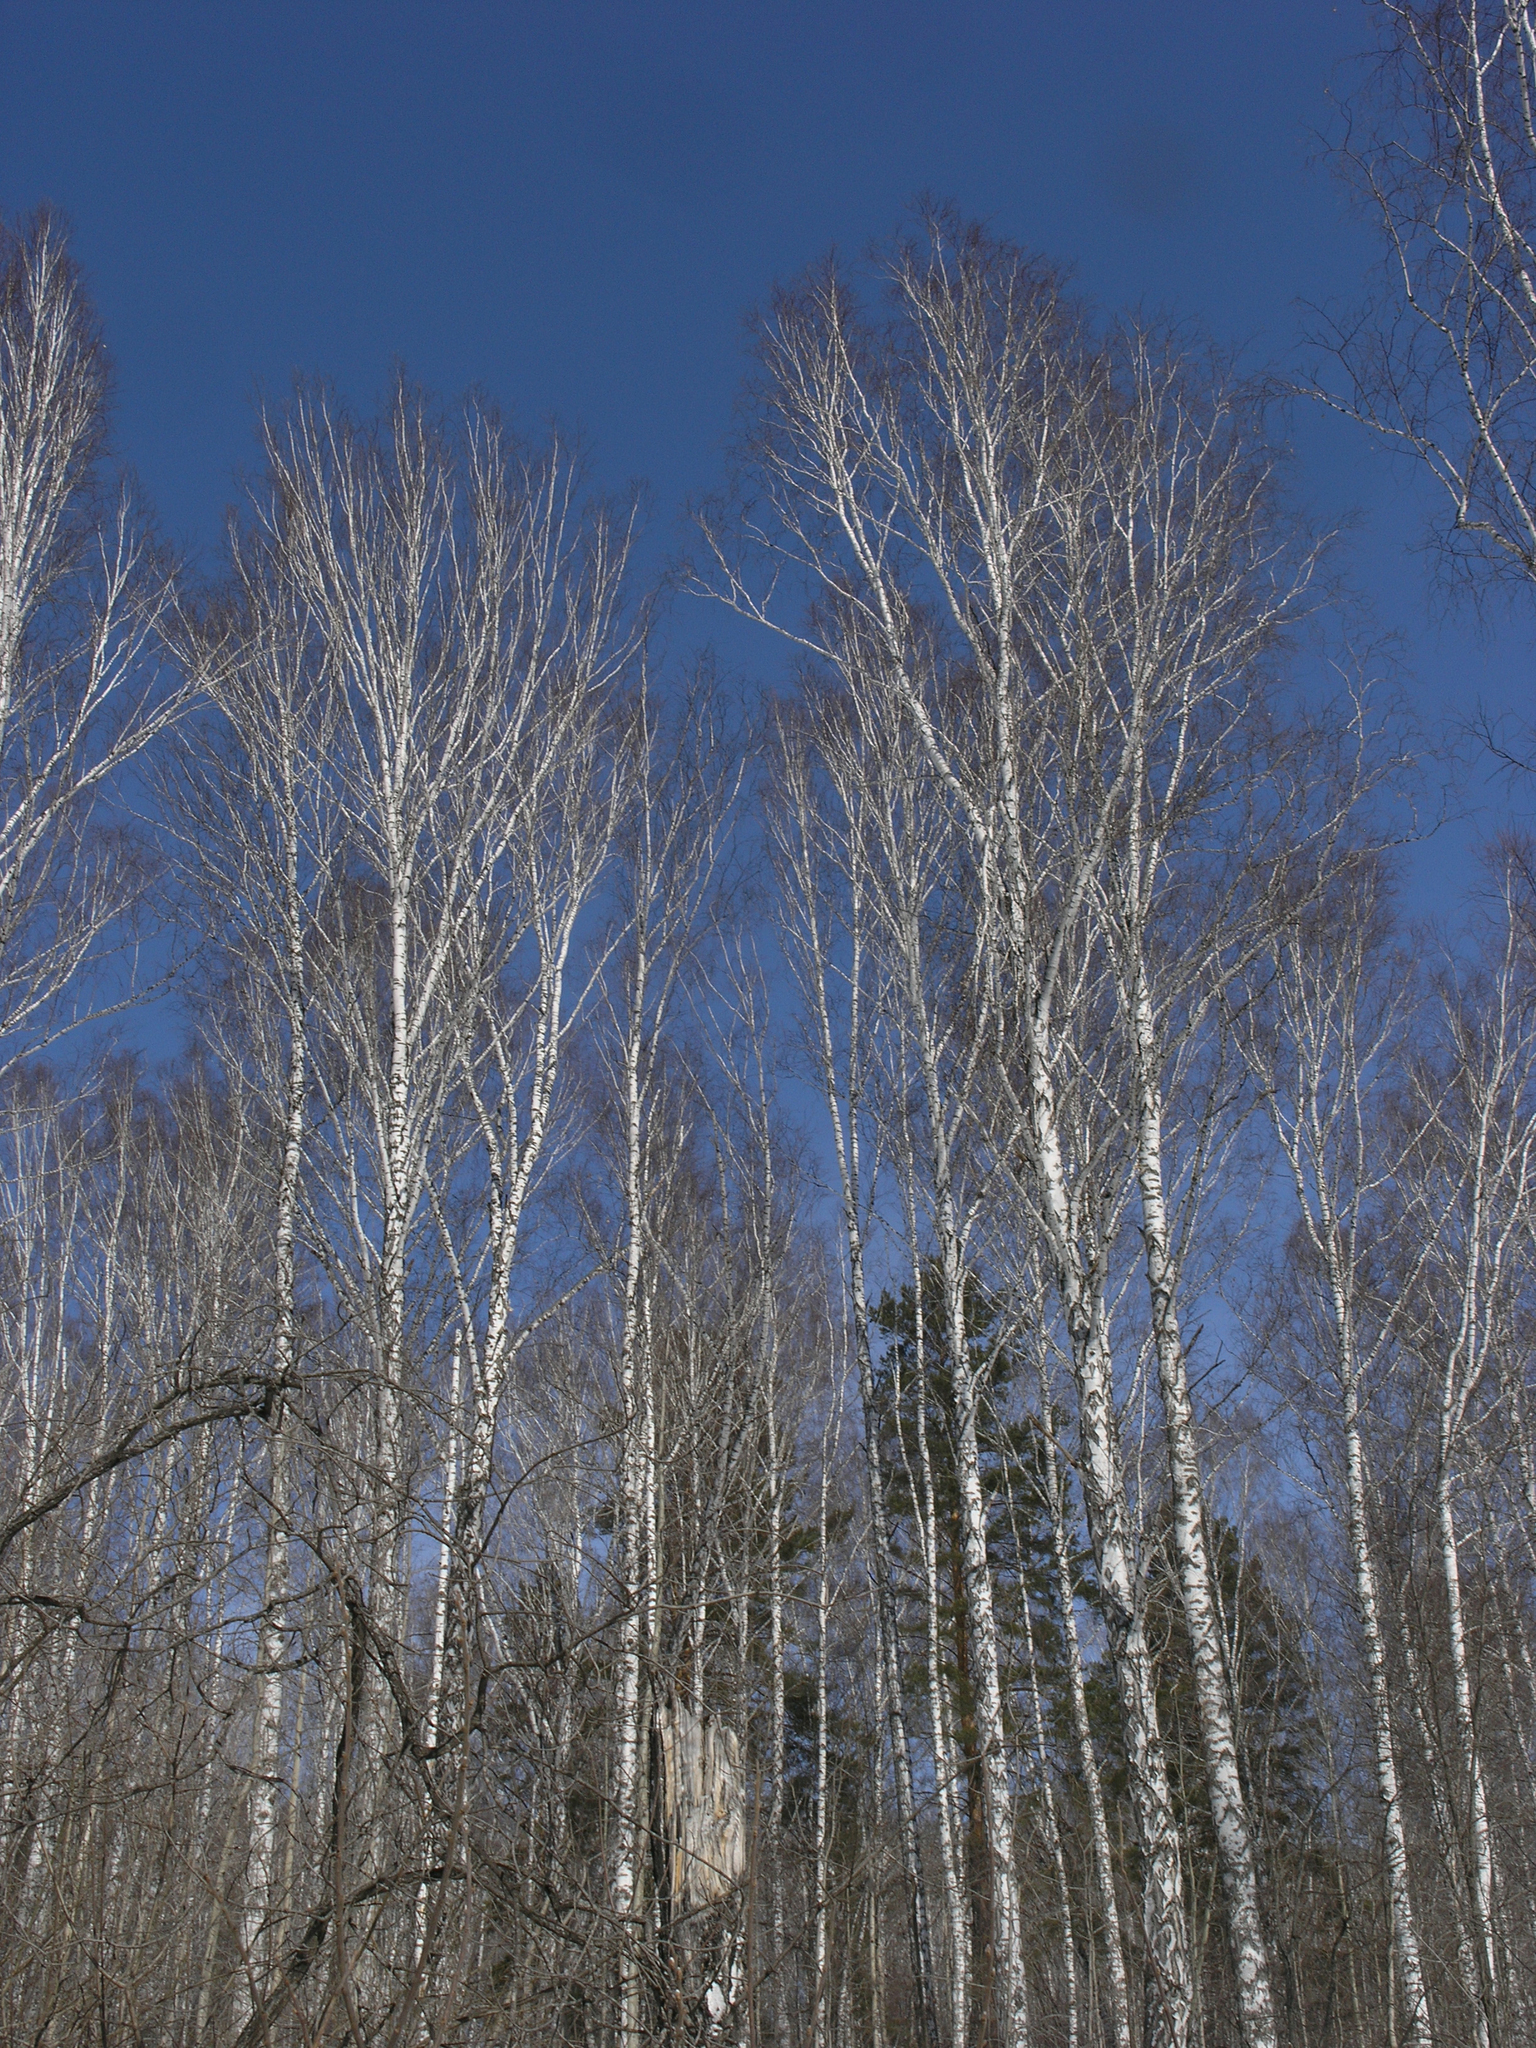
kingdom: Plantae
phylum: Tracheophyta
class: Magnoliopsida
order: Fagales
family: Betulaceae
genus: Betula
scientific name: Betula pendula
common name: Silver birch
